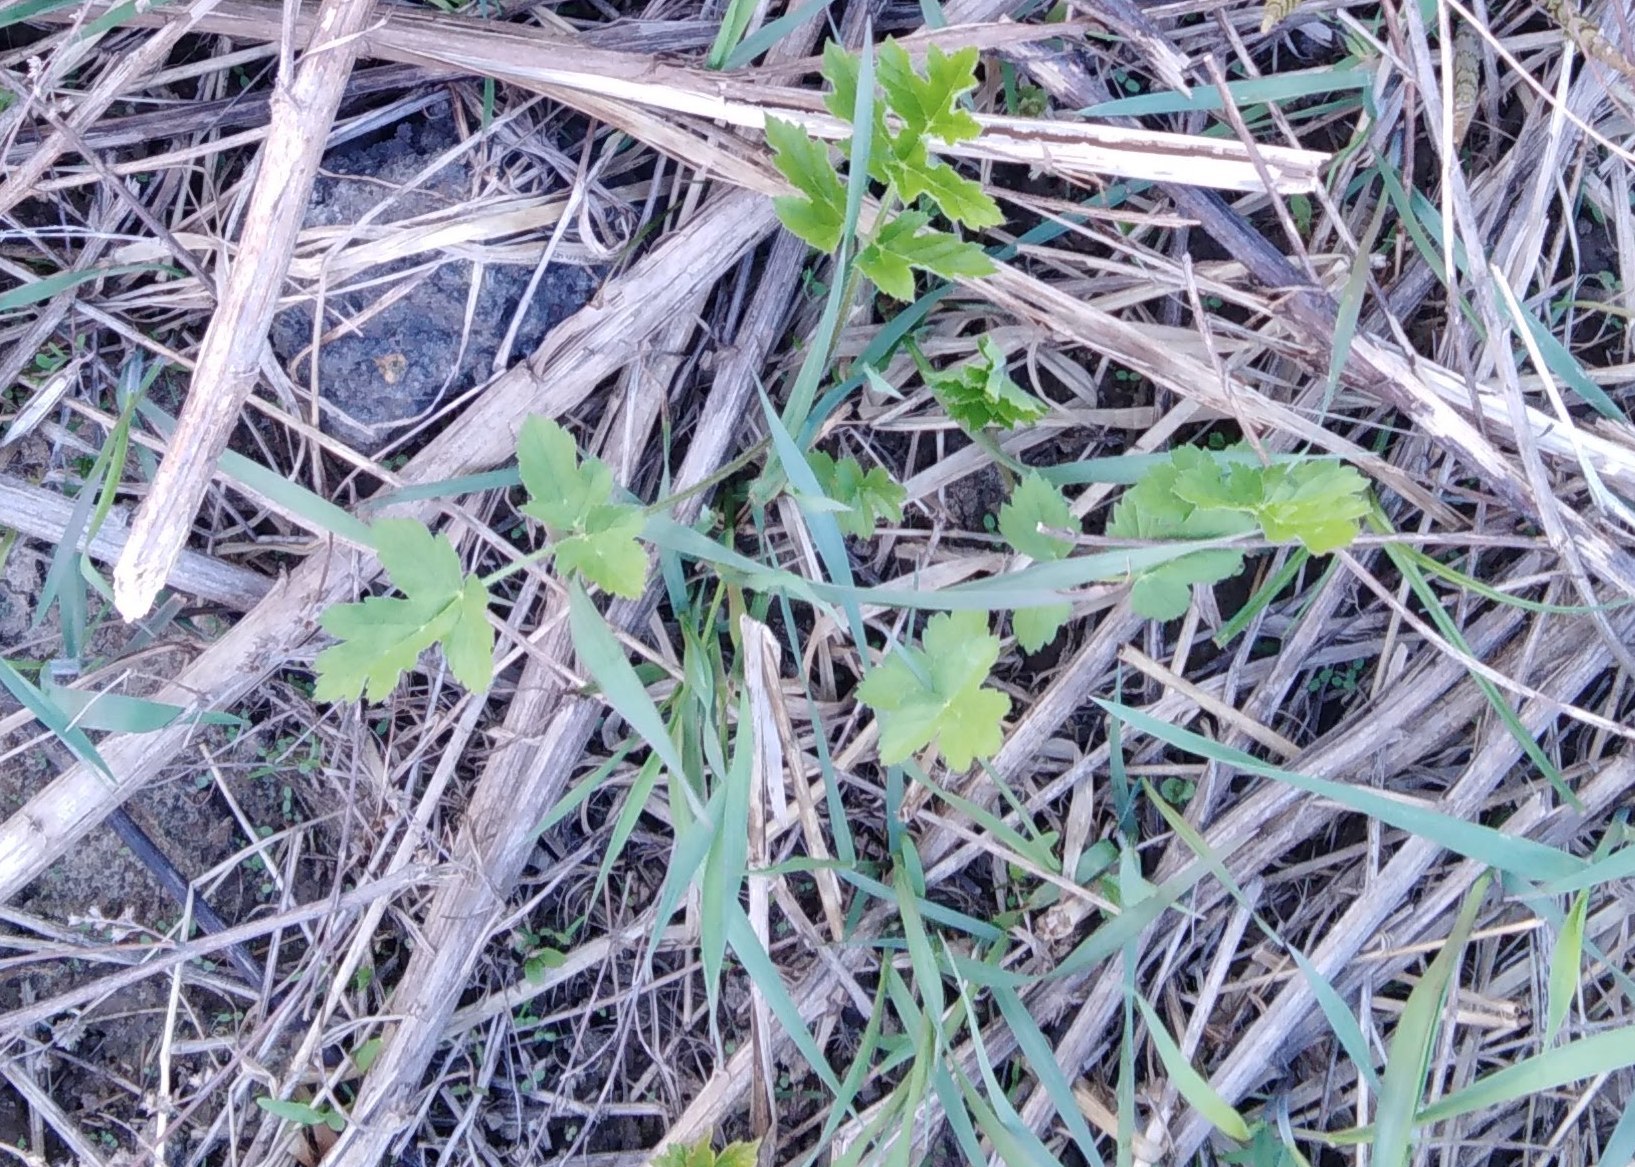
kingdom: Plantae
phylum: Tracheophyta
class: Magnoliopsida
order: Apiales
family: Apiaceae
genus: Pastinaca
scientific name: Pastinaca sativa
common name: Wild parsnip
